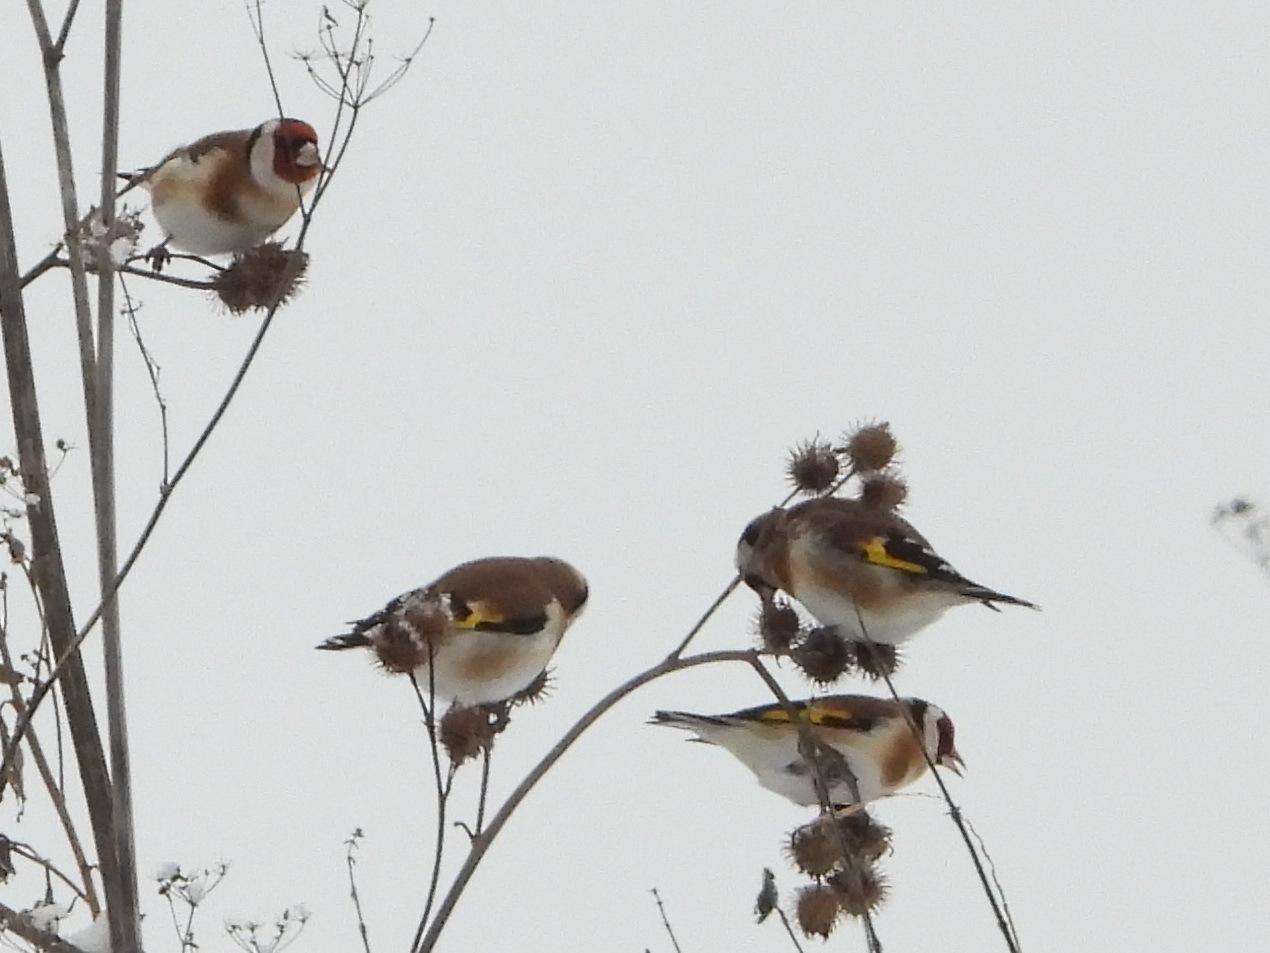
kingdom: Animalia
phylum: Chordata
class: Aves
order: Passeriformes
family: Fringillidae
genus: Carduelis
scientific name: Carduelis carduelis
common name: European goldfinch
